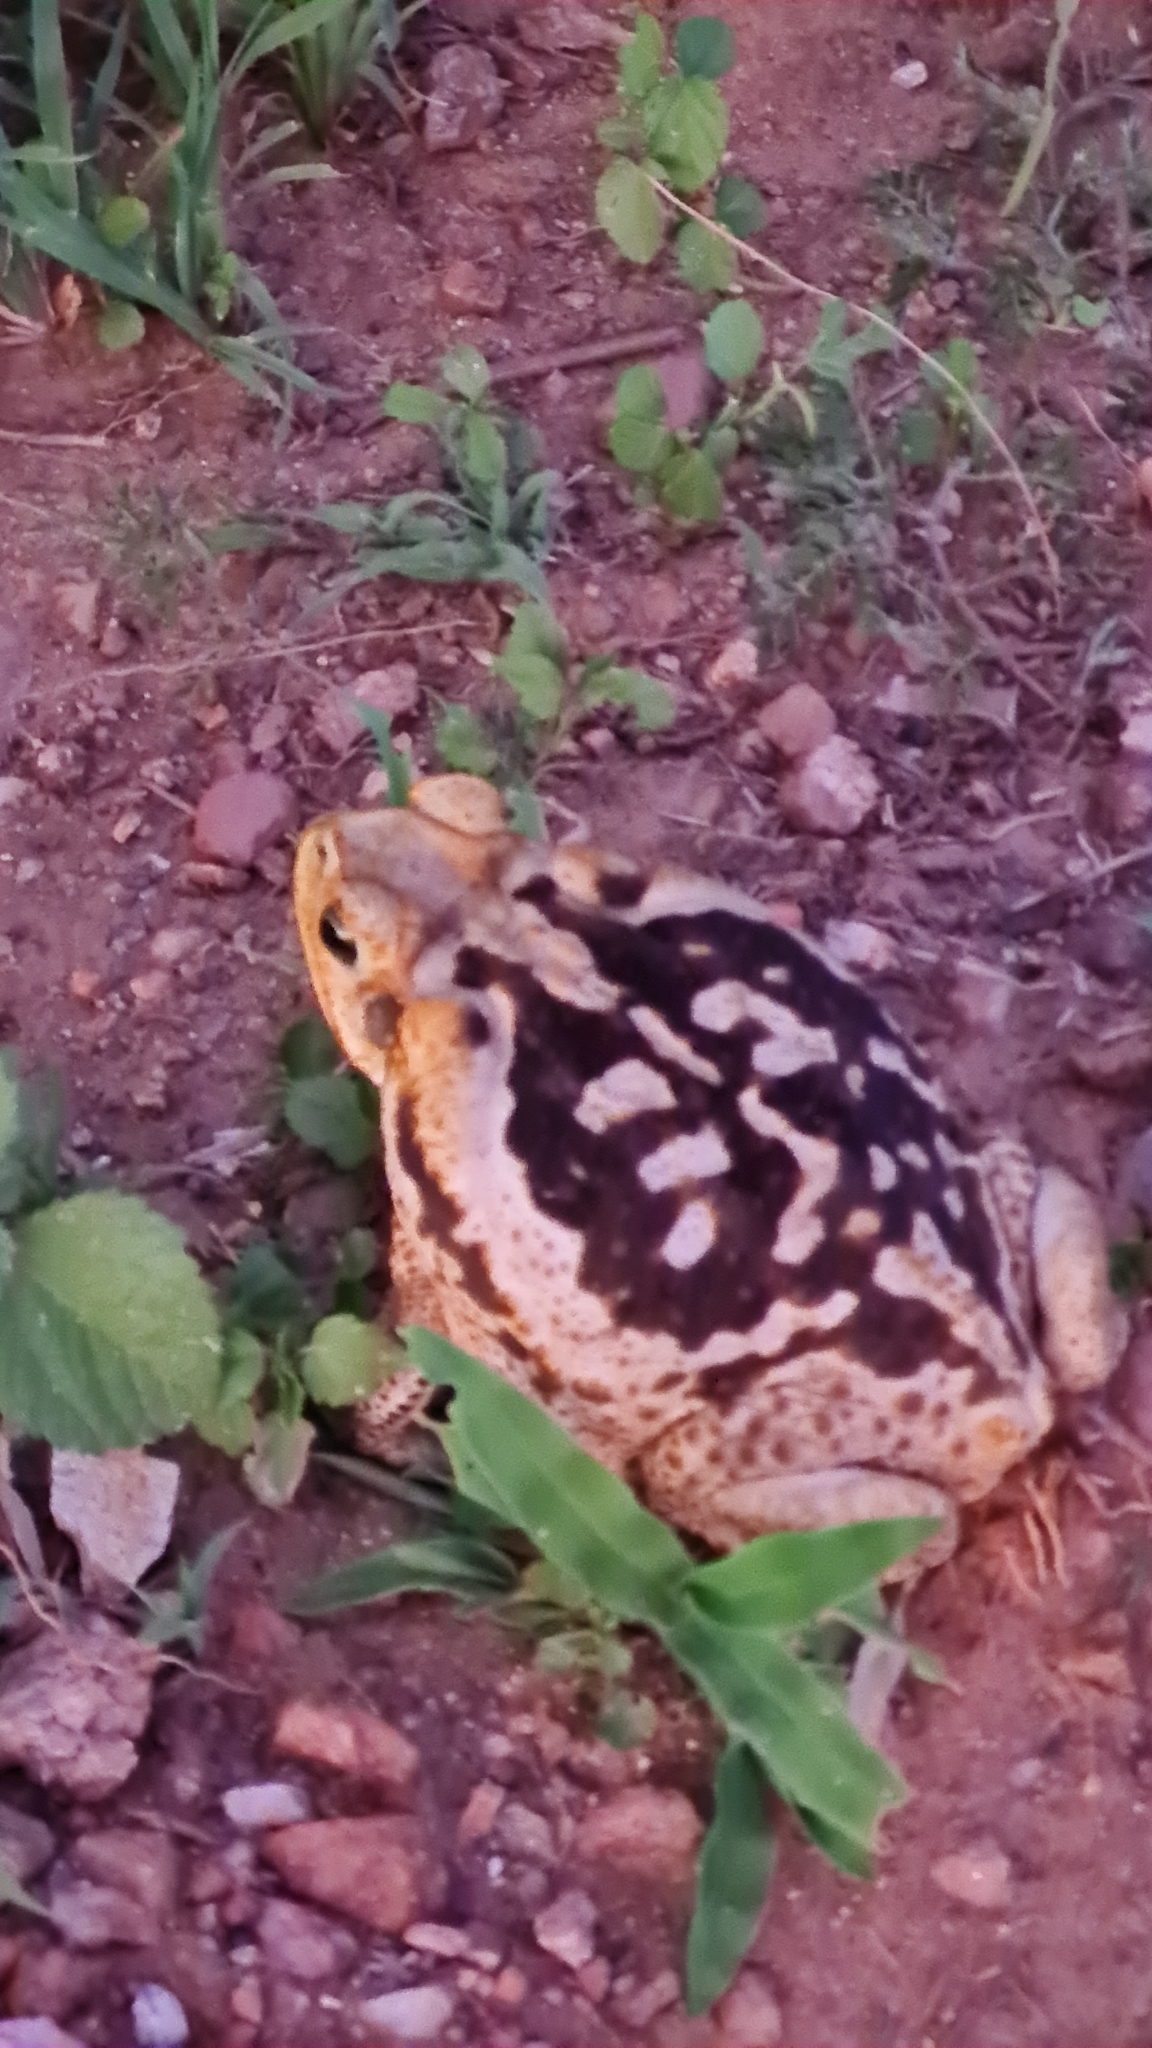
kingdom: Animalia
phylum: Chordata
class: Amphibia
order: Anura
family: Bufonidae
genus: Rhinella
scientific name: Rhinella diptycha
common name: Cope's toad
